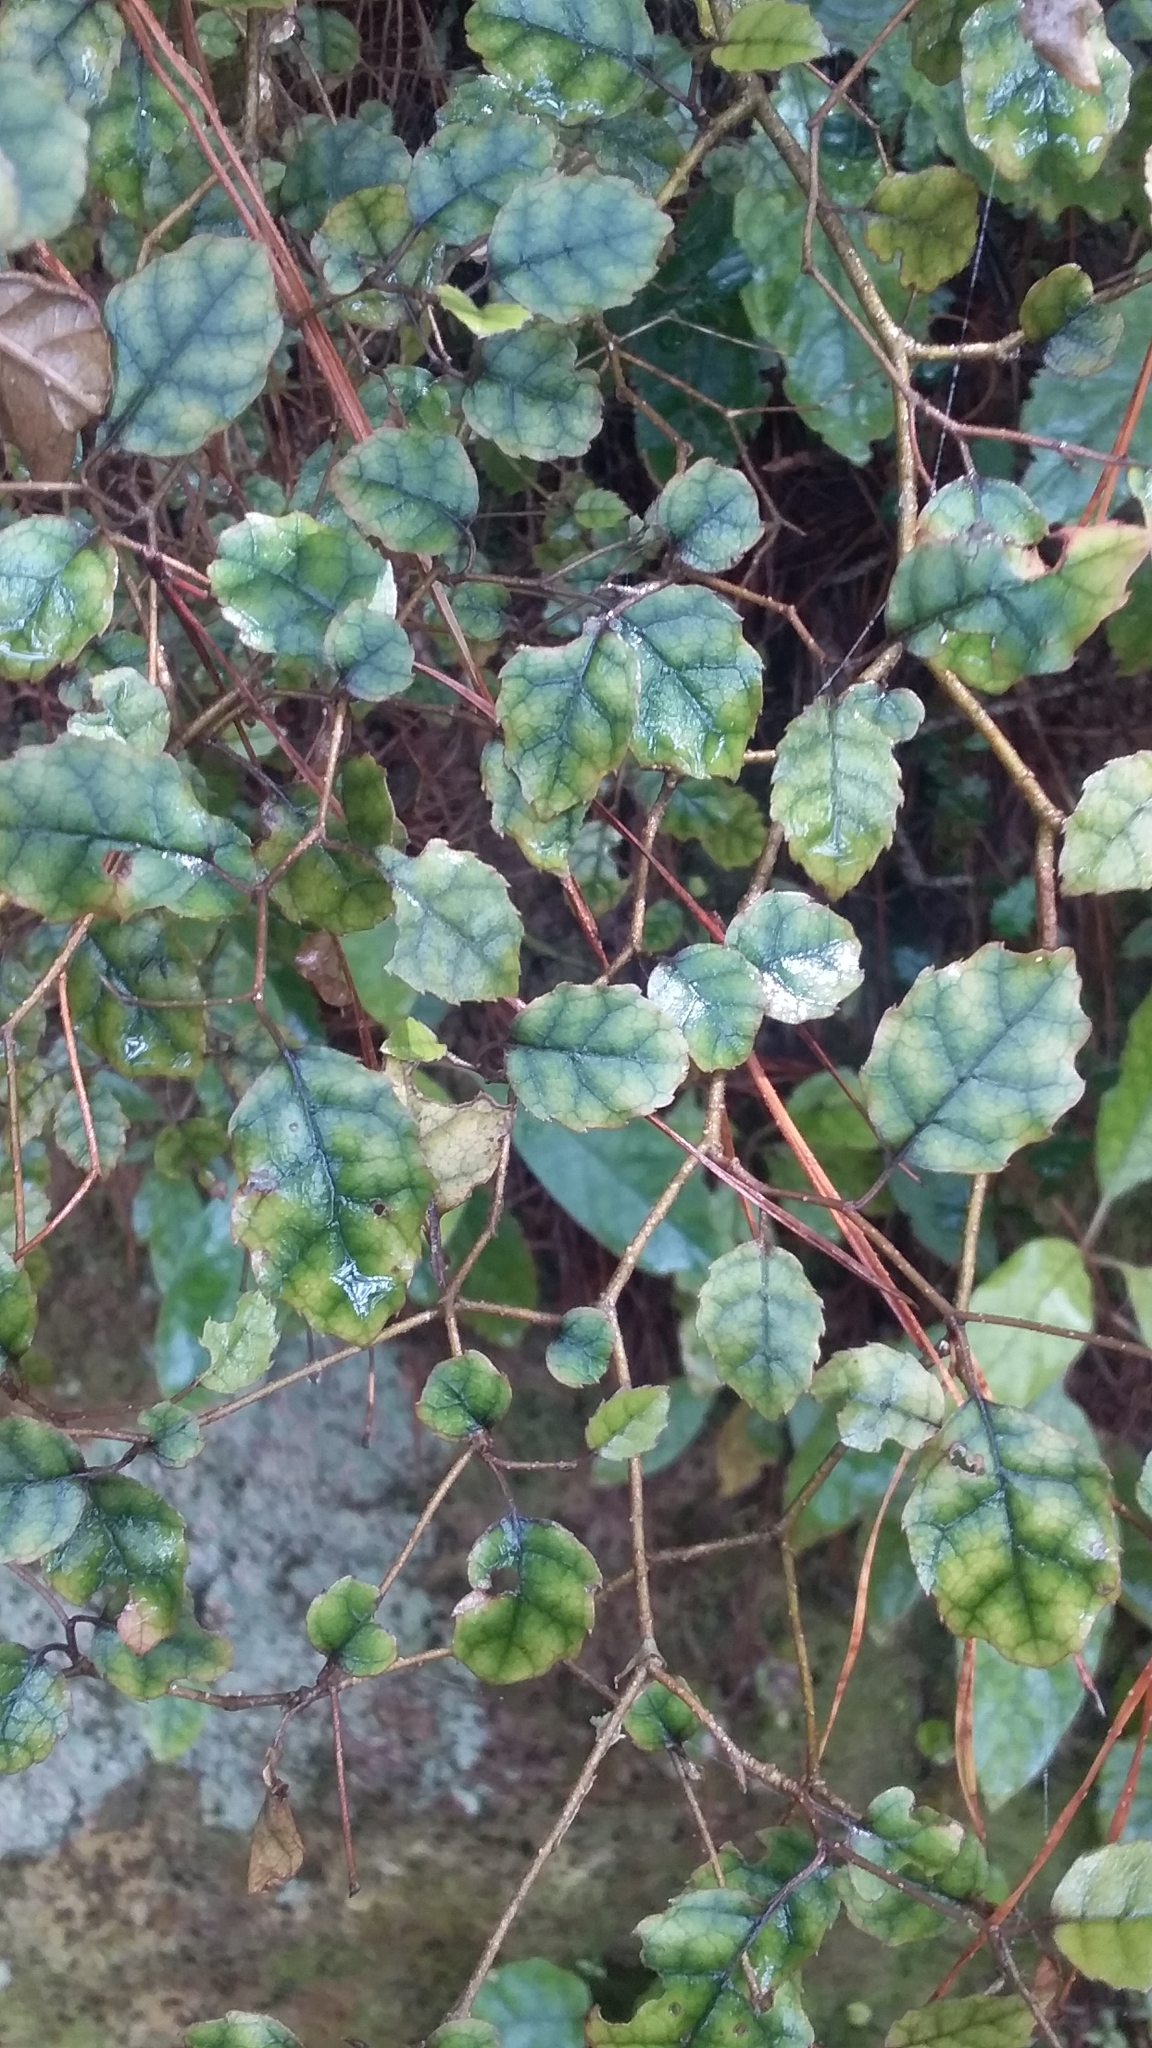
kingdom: Plantae
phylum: Tracheophyta
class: Magnoliopsida
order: Asterales
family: Rousseaceae
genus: Carpodetus
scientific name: Carpodetus serratus
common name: White mapau
